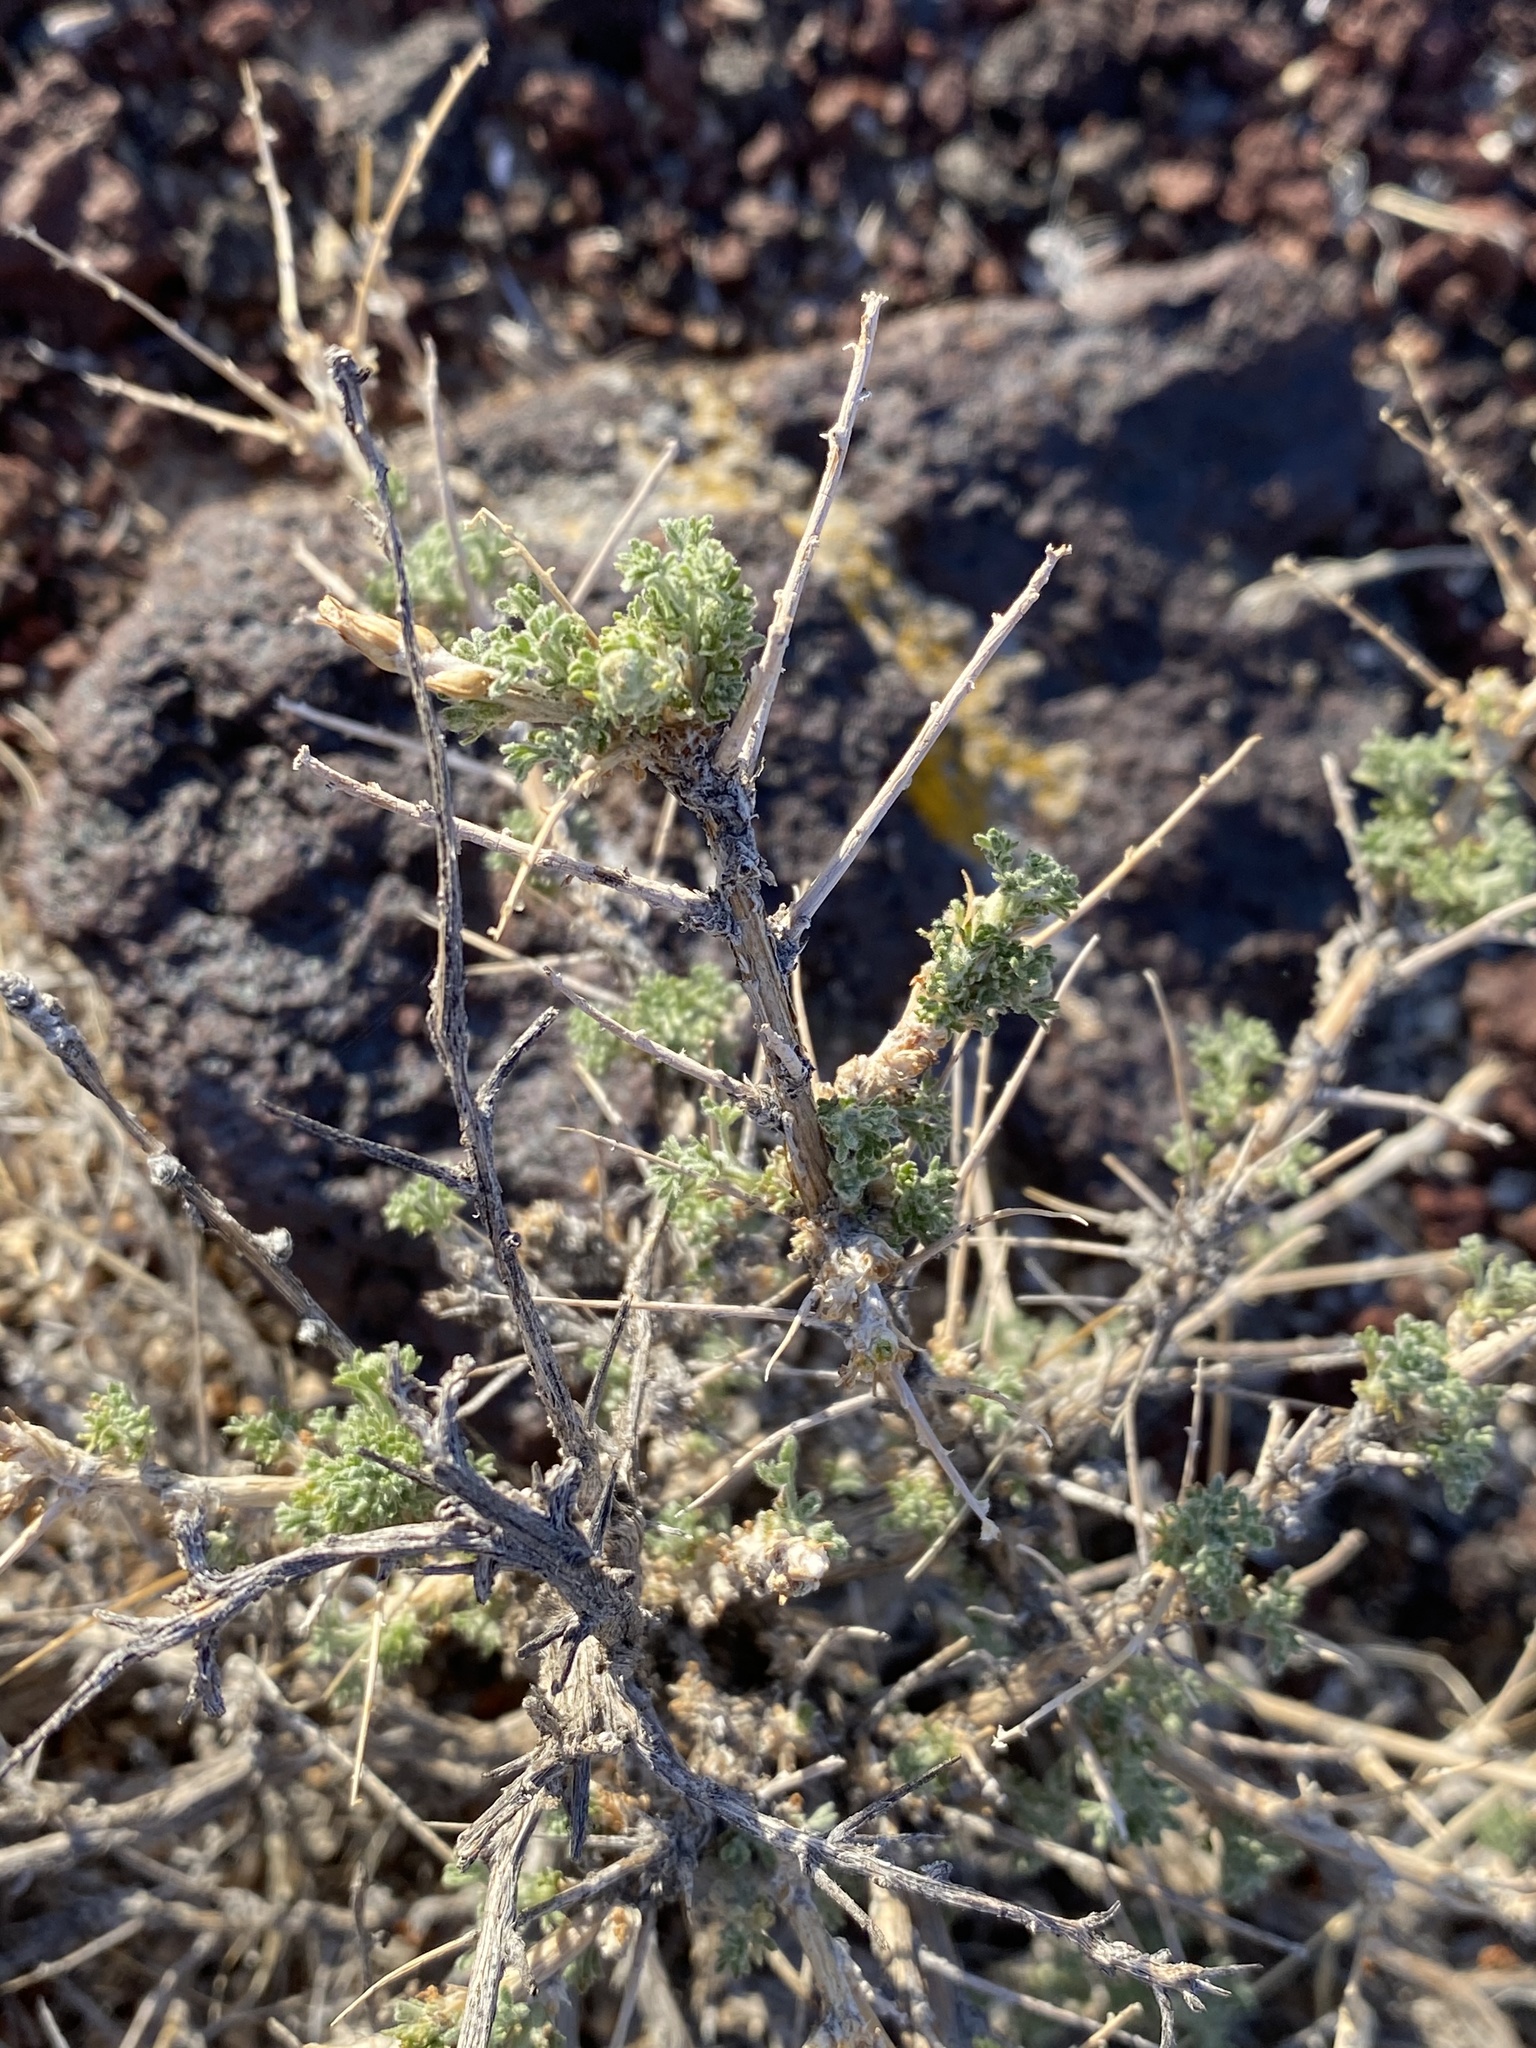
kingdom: Plantae
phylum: Tracheophyta
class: Magnoliopsida
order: Asterales
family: Asteraceae
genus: Artemisia
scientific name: Artemisia spinescens
